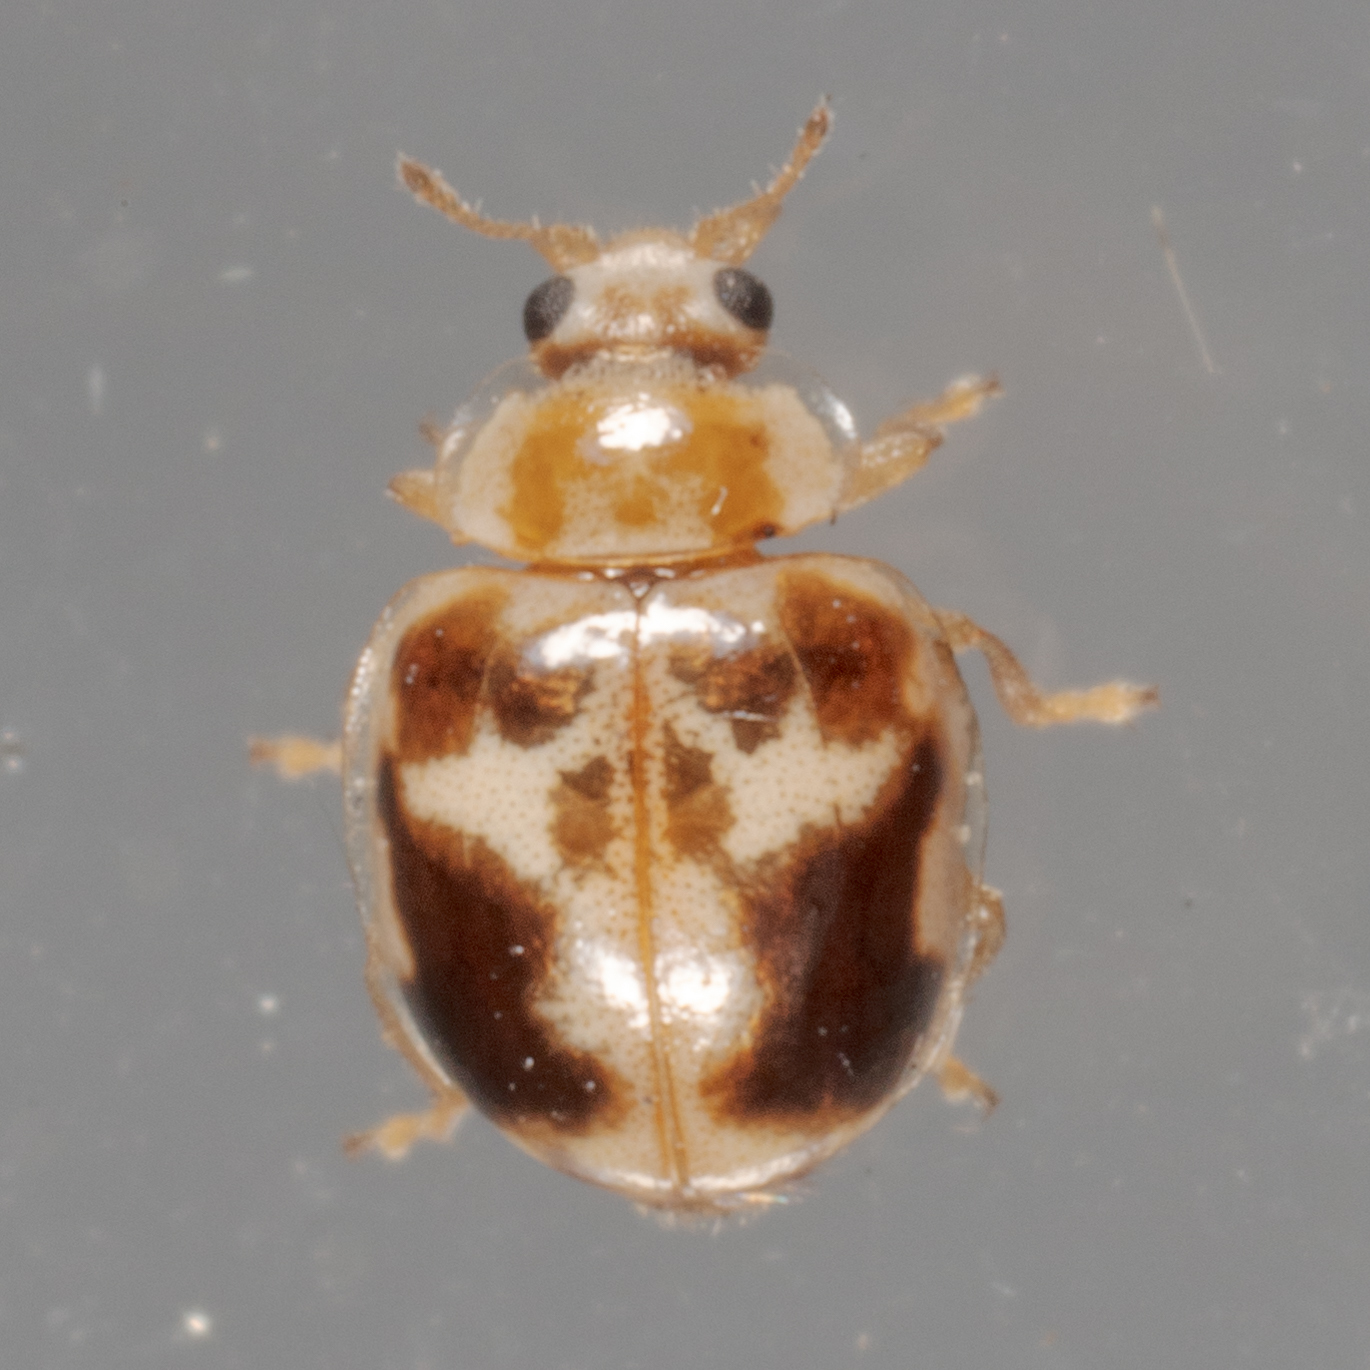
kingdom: Animalia
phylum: Arthropoda
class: Insecta
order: Coleoptera
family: Coccinellidae
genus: Psyllobora
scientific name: Psyllobora renifer
